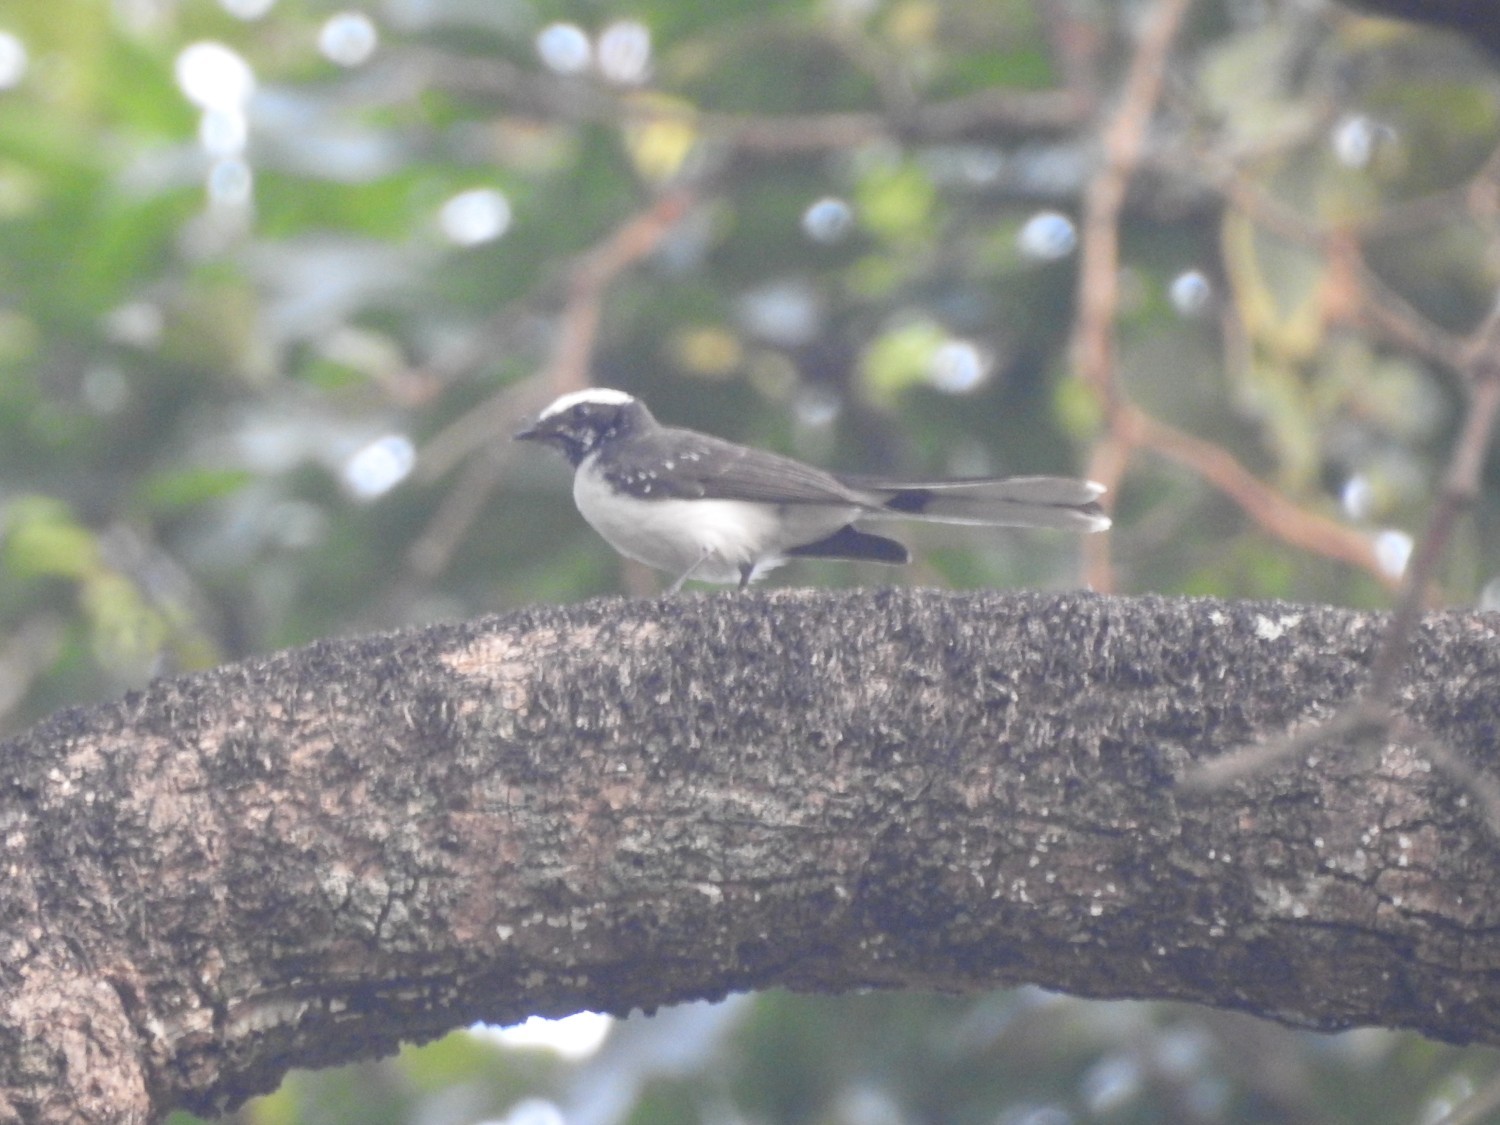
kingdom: Animalia
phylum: Chordata
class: Aves
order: Passeriformes
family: Motacillidae
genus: Motacilla
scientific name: Motacilla maderaspatensis
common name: White-browed wagtail
